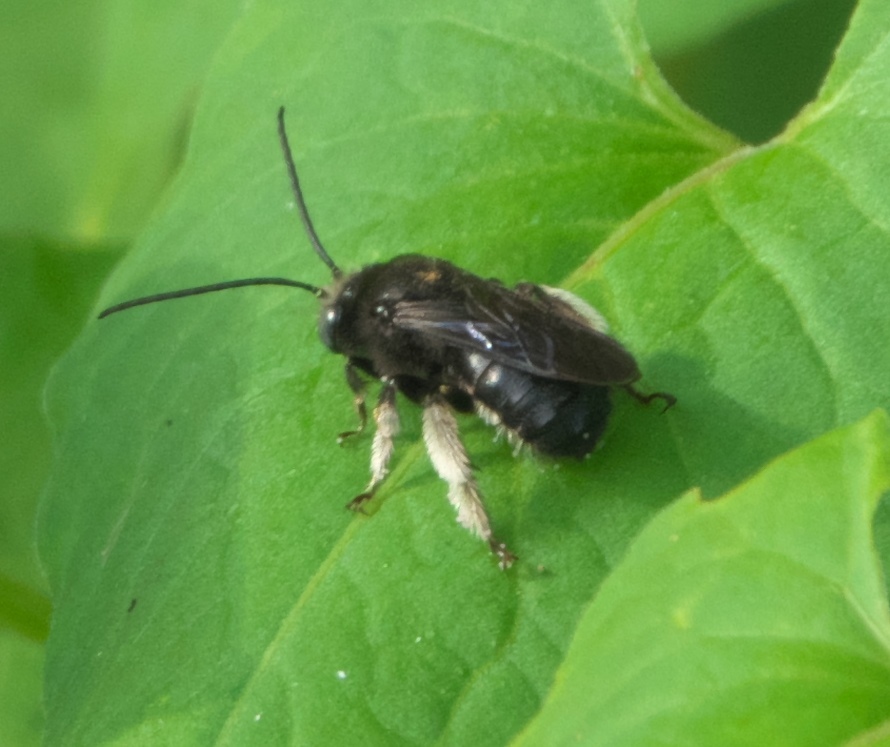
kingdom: Animalia
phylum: Arthropoda
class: Insecta
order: Hymenoptera
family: Apidae
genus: Melissodes
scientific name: Melissodes bimaculatus
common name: Two-spotted long-horned bee
